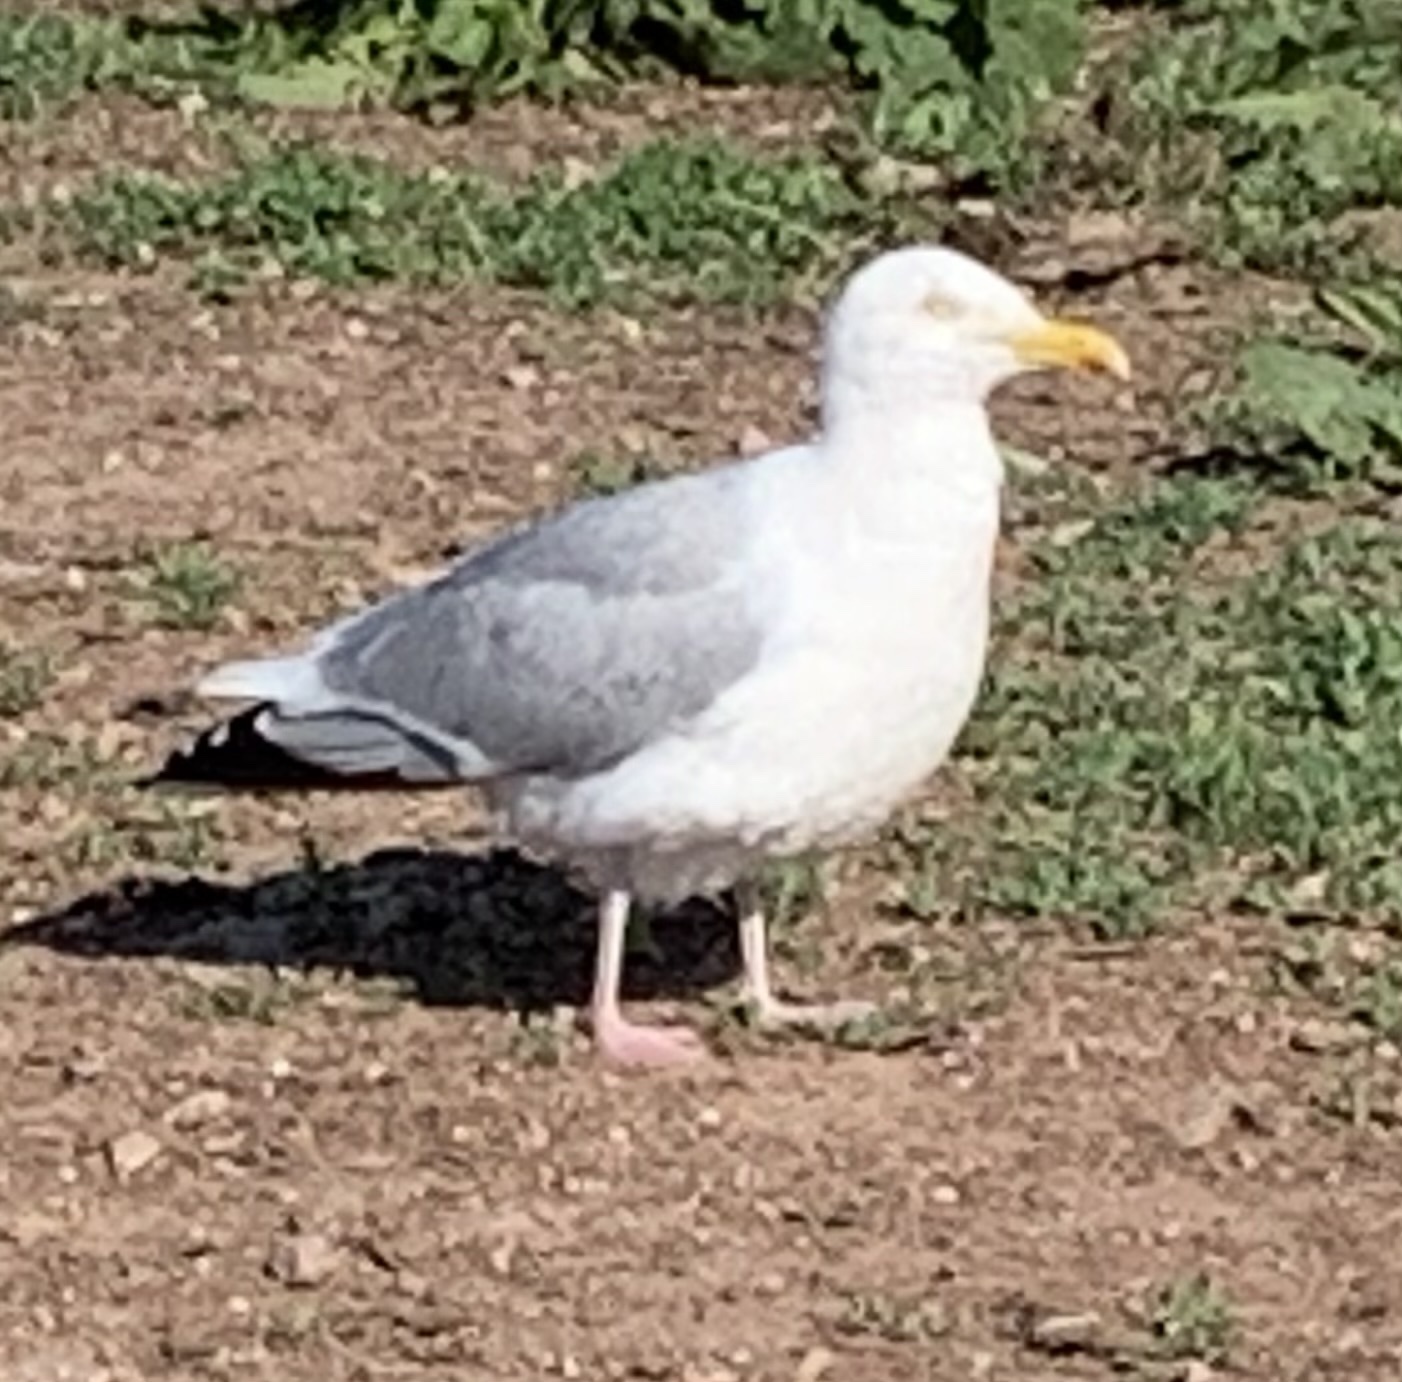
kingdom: Animalia
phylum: Chordata
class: Aves
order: Charadriiformes
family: Laridae
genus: Larus
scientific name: Larus argentatus
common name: Herring gull
